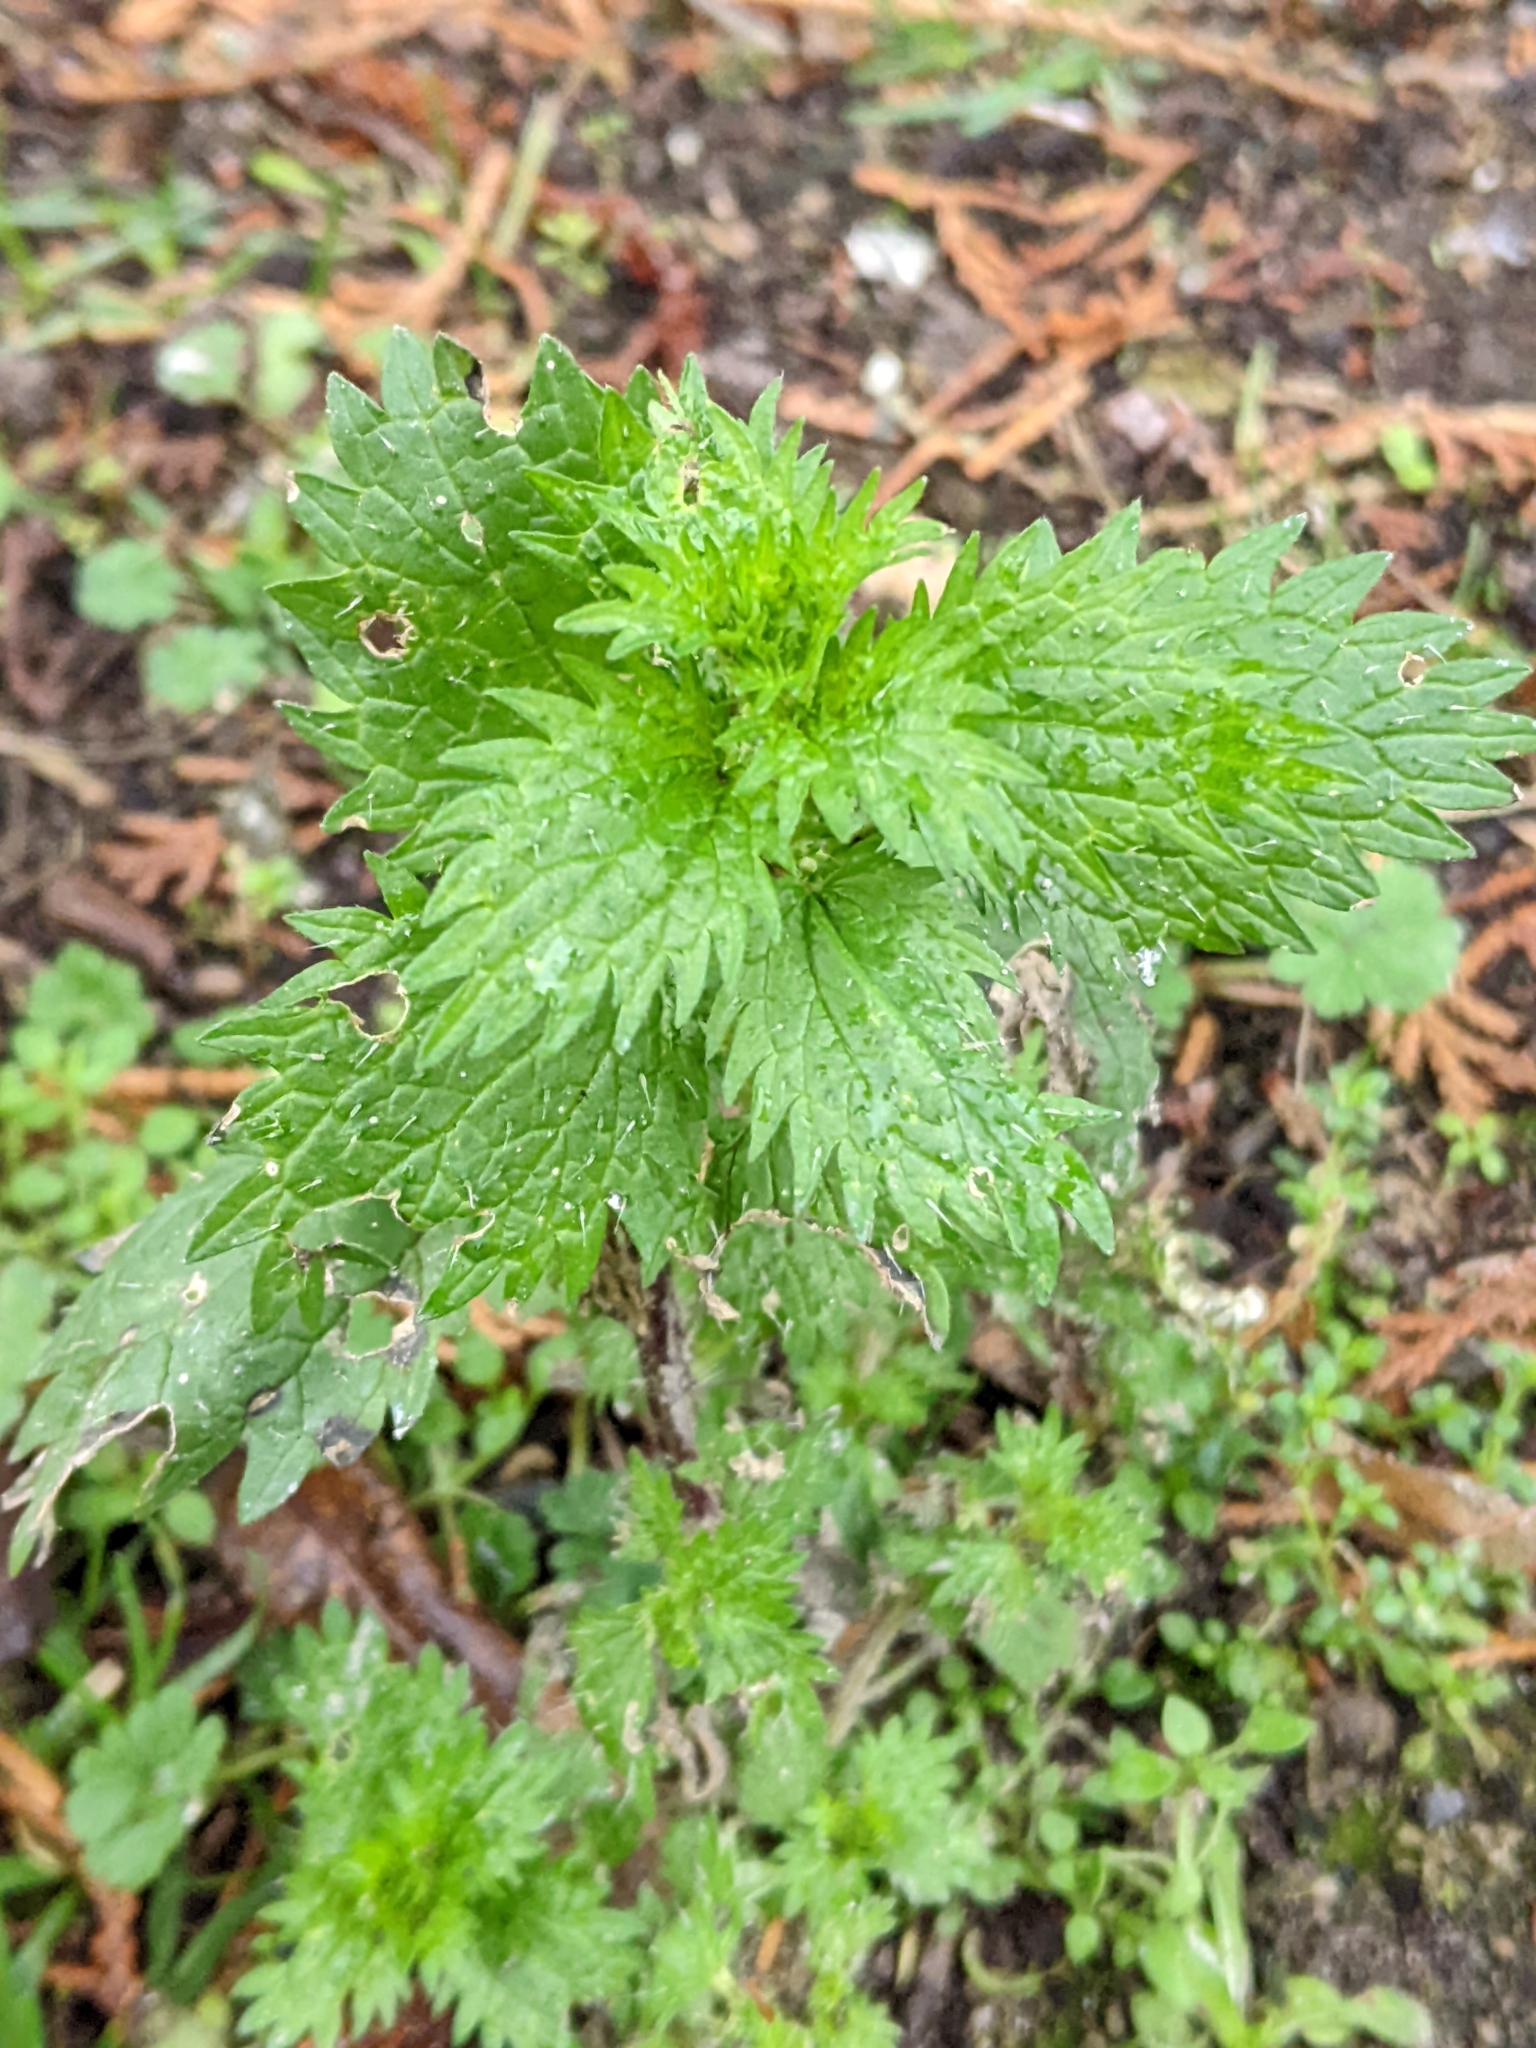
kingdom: Plantae
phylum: Tracheophyta
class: Magnoliopsida
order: Rosales
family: Urticaceae
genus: Urtica
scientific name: Urtica urens
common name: Dwarf nettle
